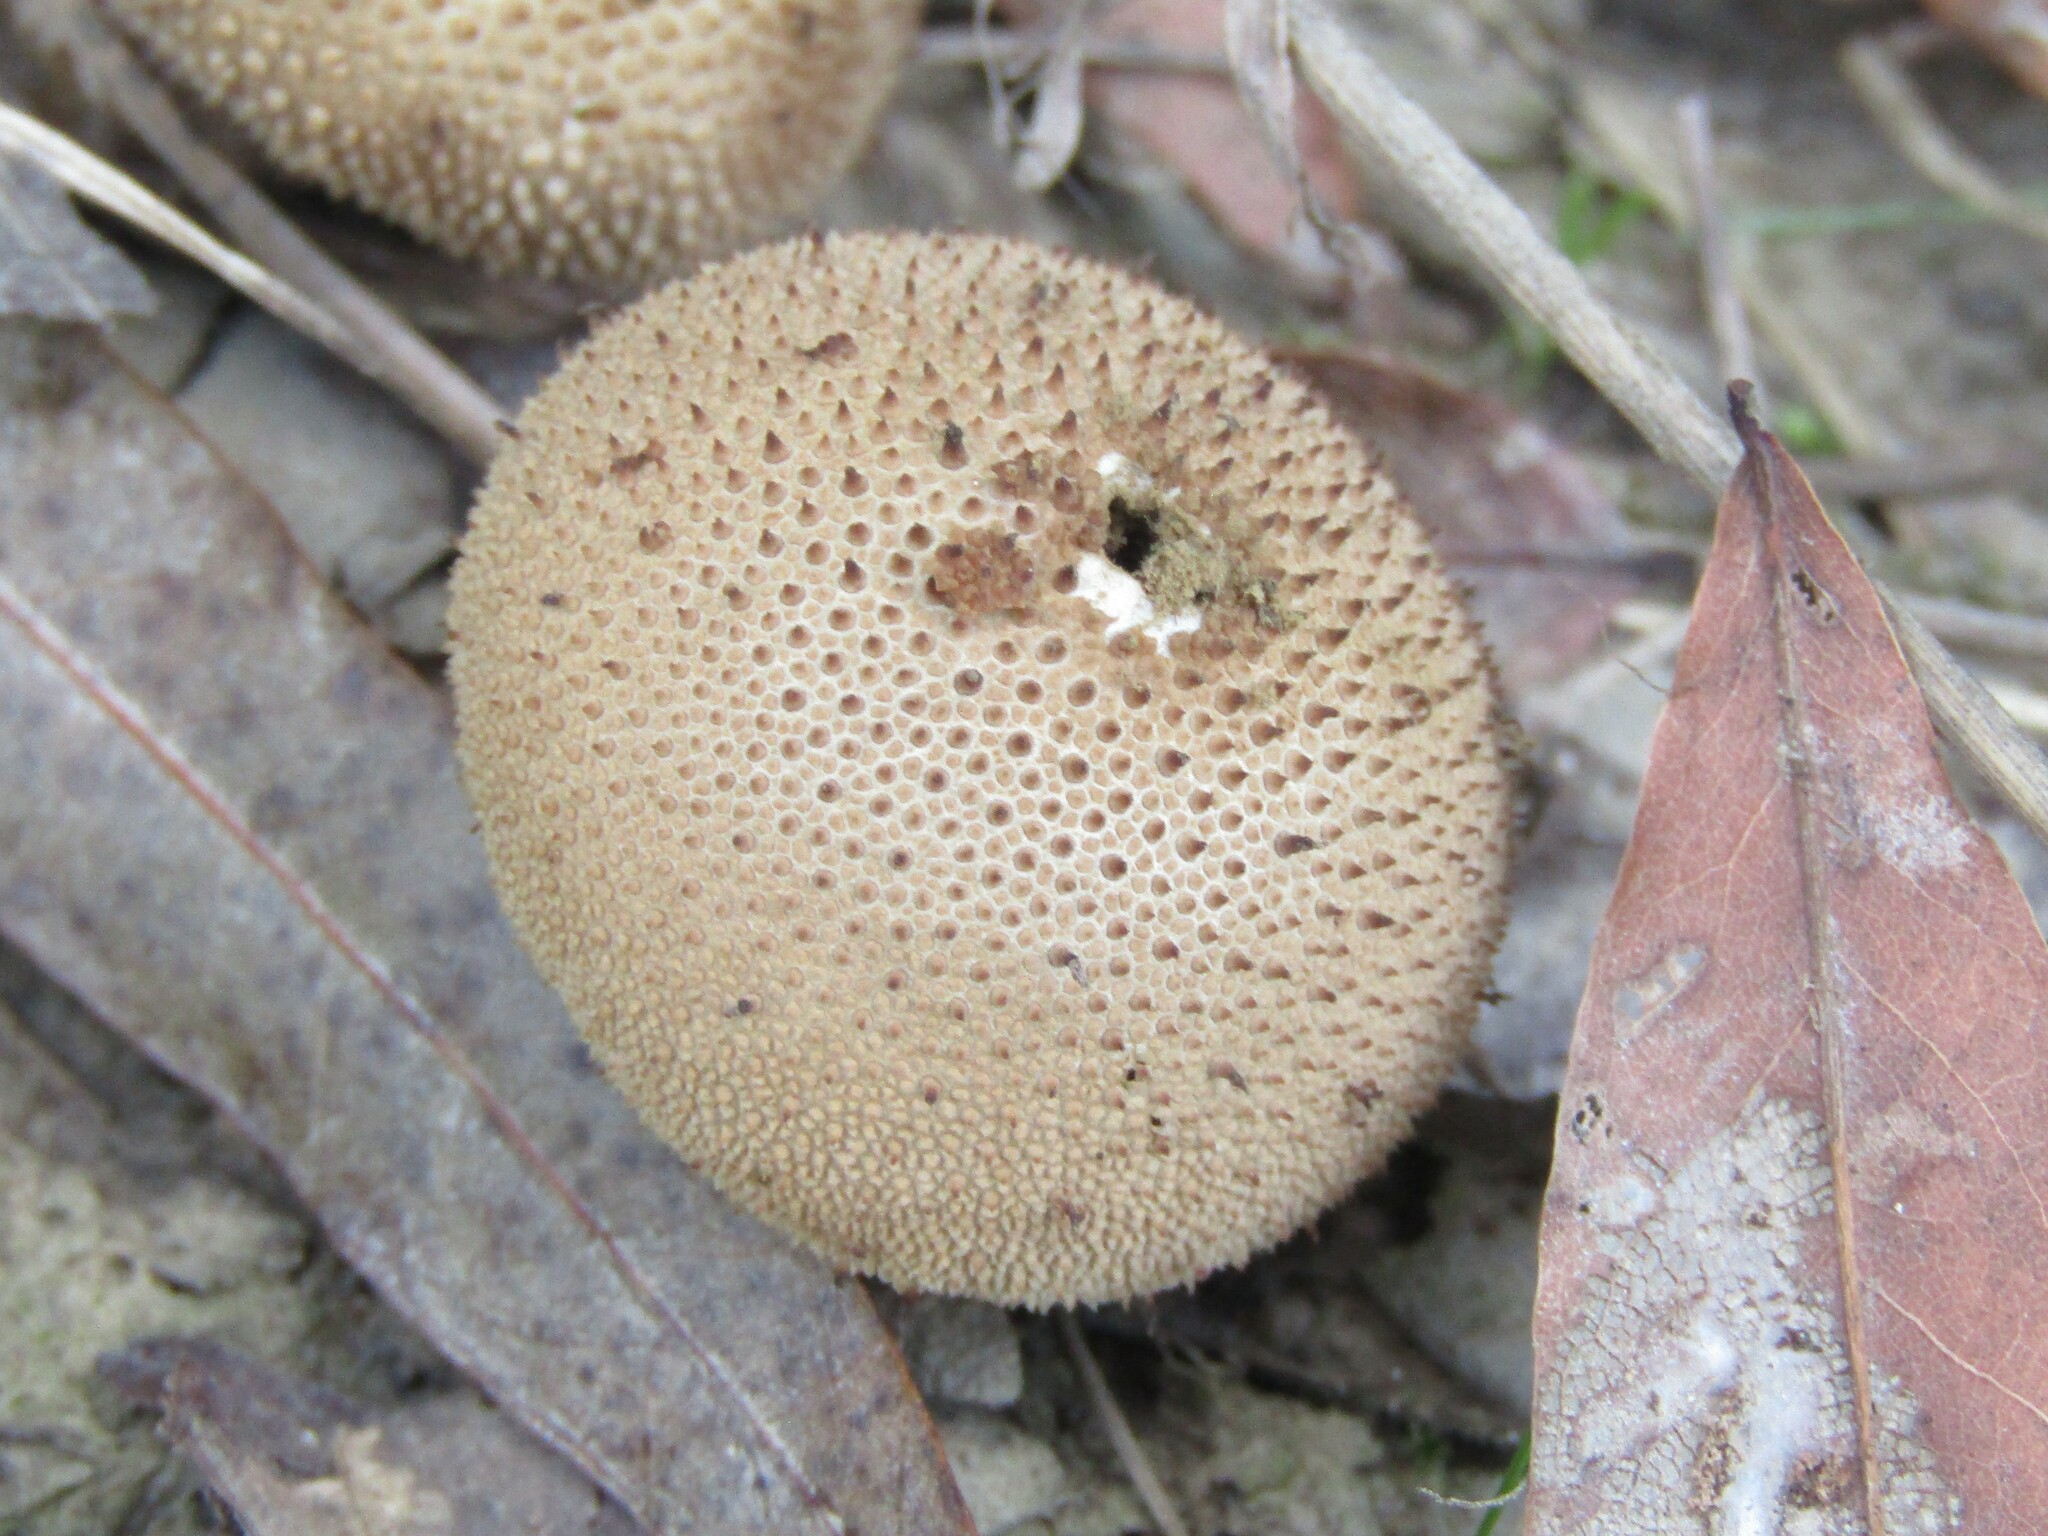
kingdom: Fungi
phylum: Basidiomycota
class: Agaricomycetes
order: Agaricales
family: Lycoperdaceae
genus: Lycoperdon
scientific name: Lycoperdon perlatum
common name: Common puffball
